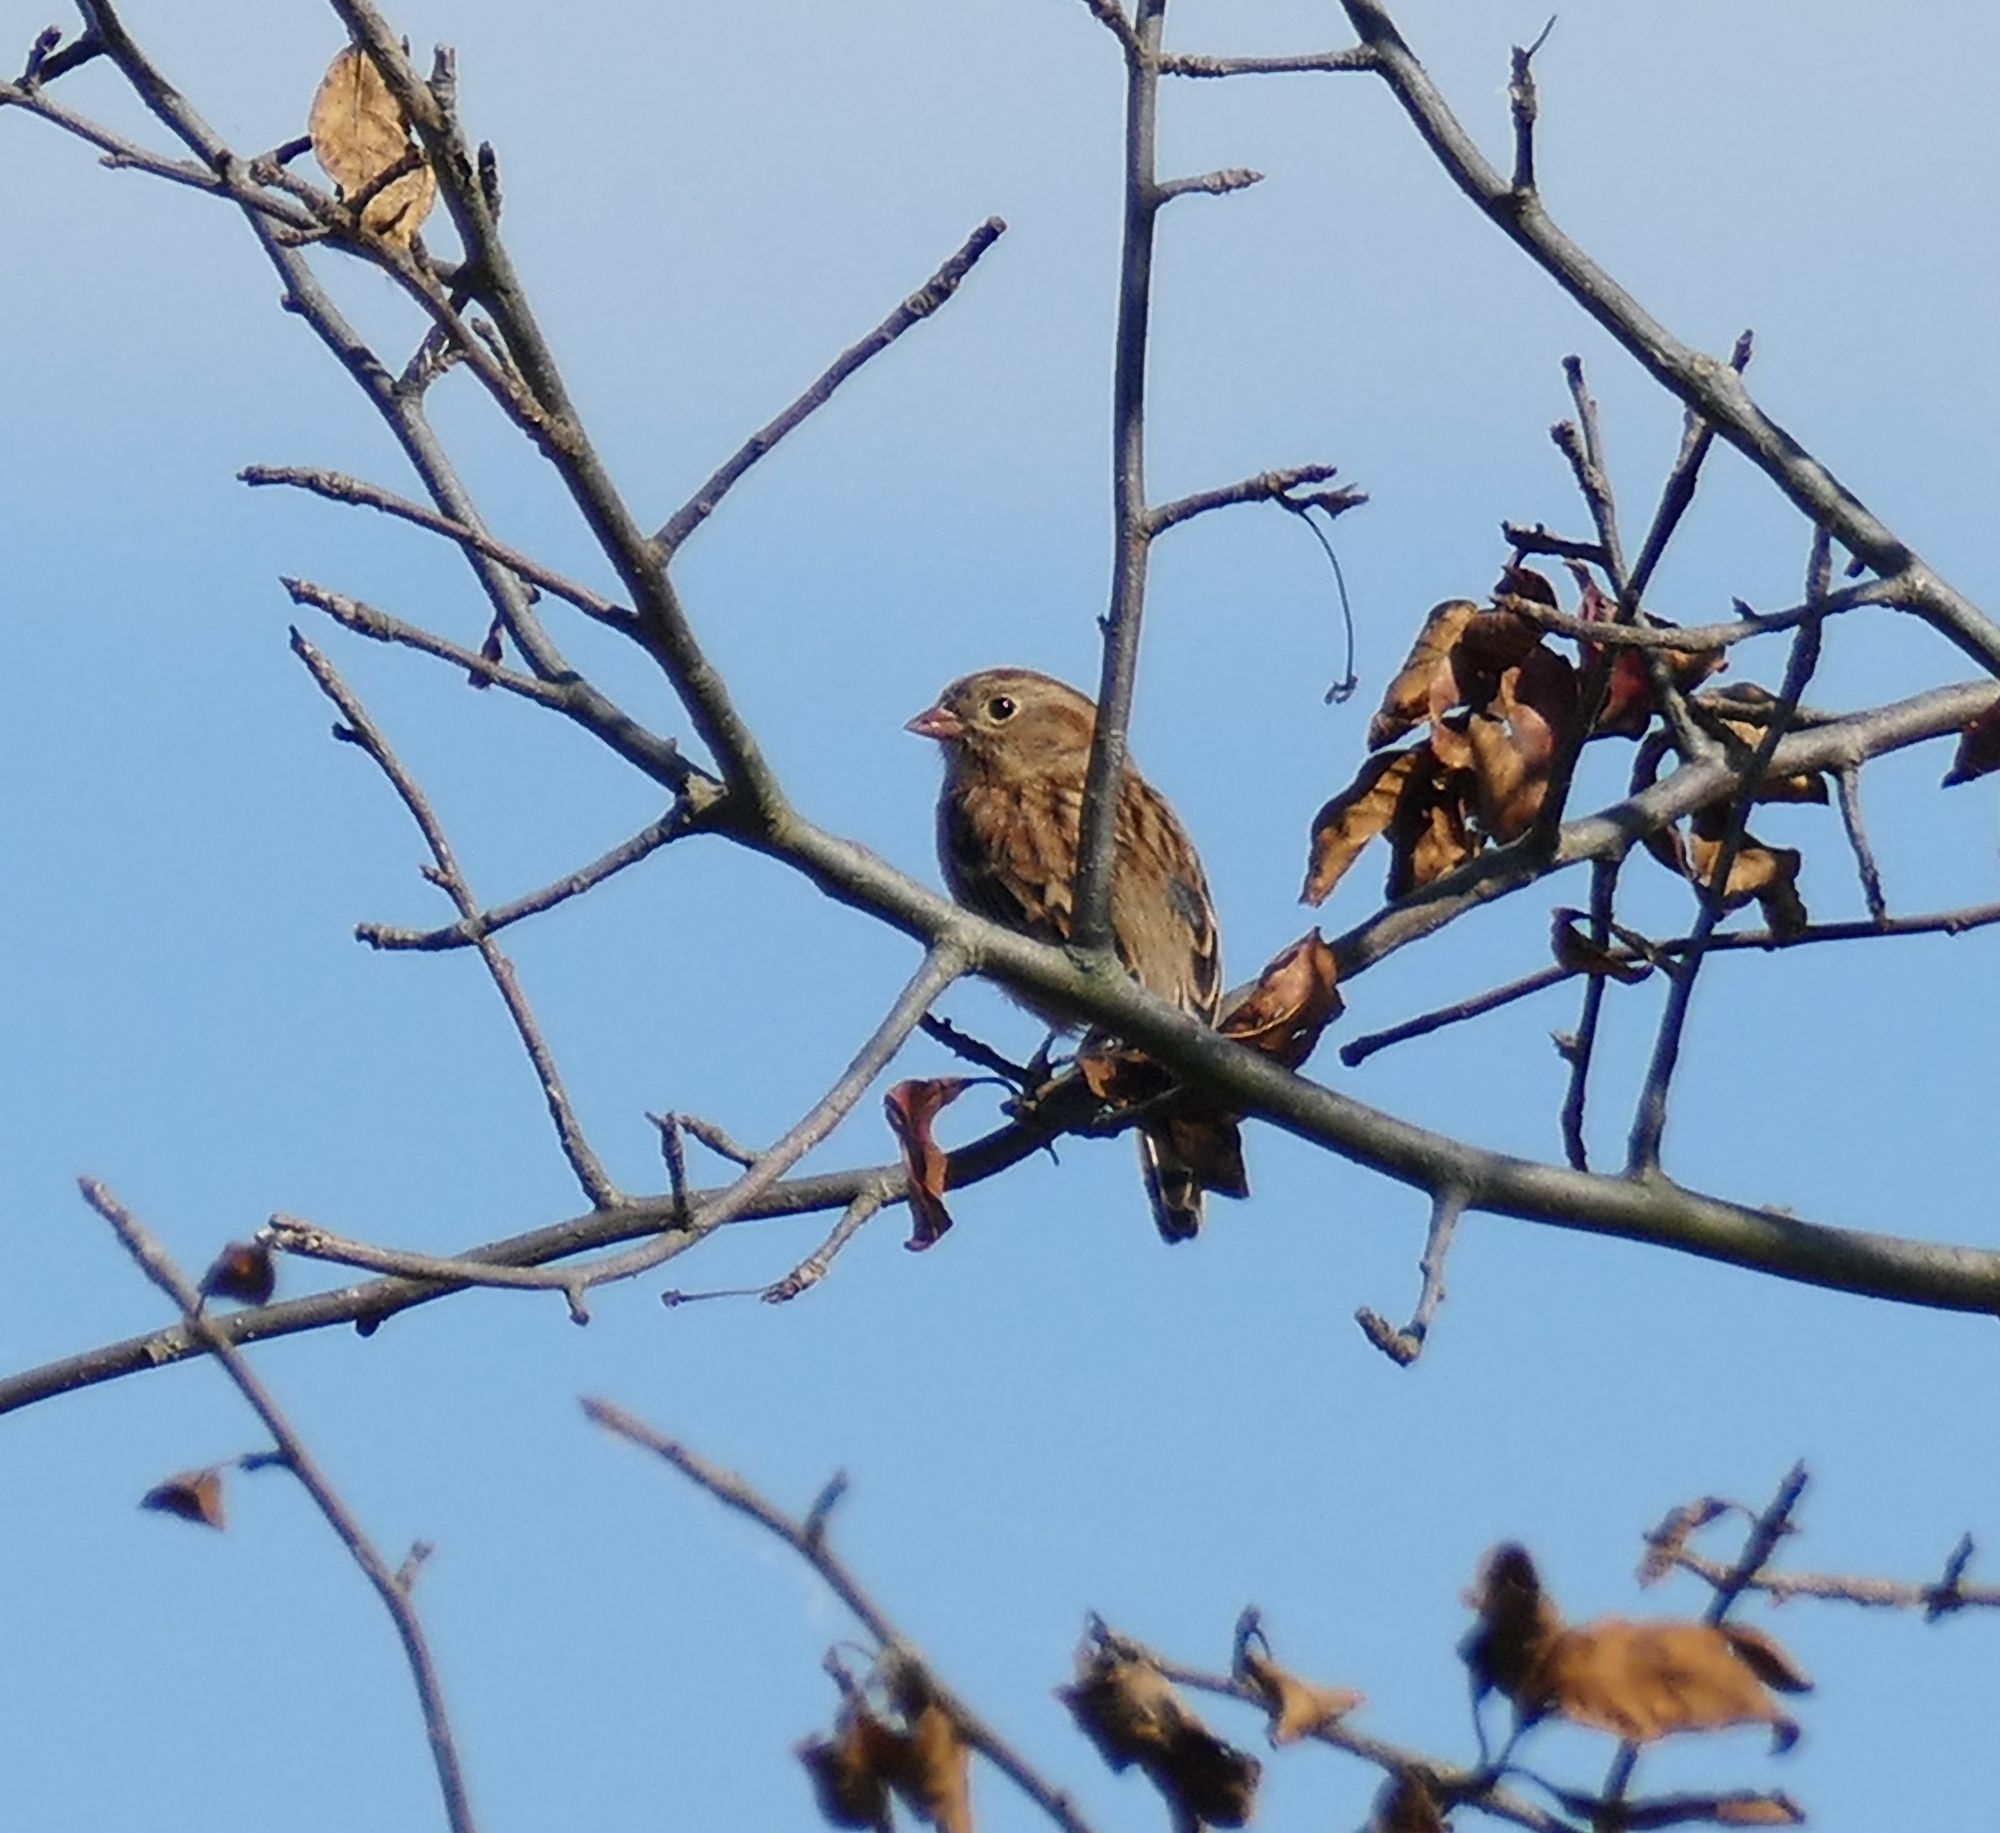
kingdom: Animalia
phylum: Chordata
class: Aves
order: Passeriformes
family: Passerellidae
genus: Spizella
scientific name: Spizella pusilla
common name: Field sparrow
